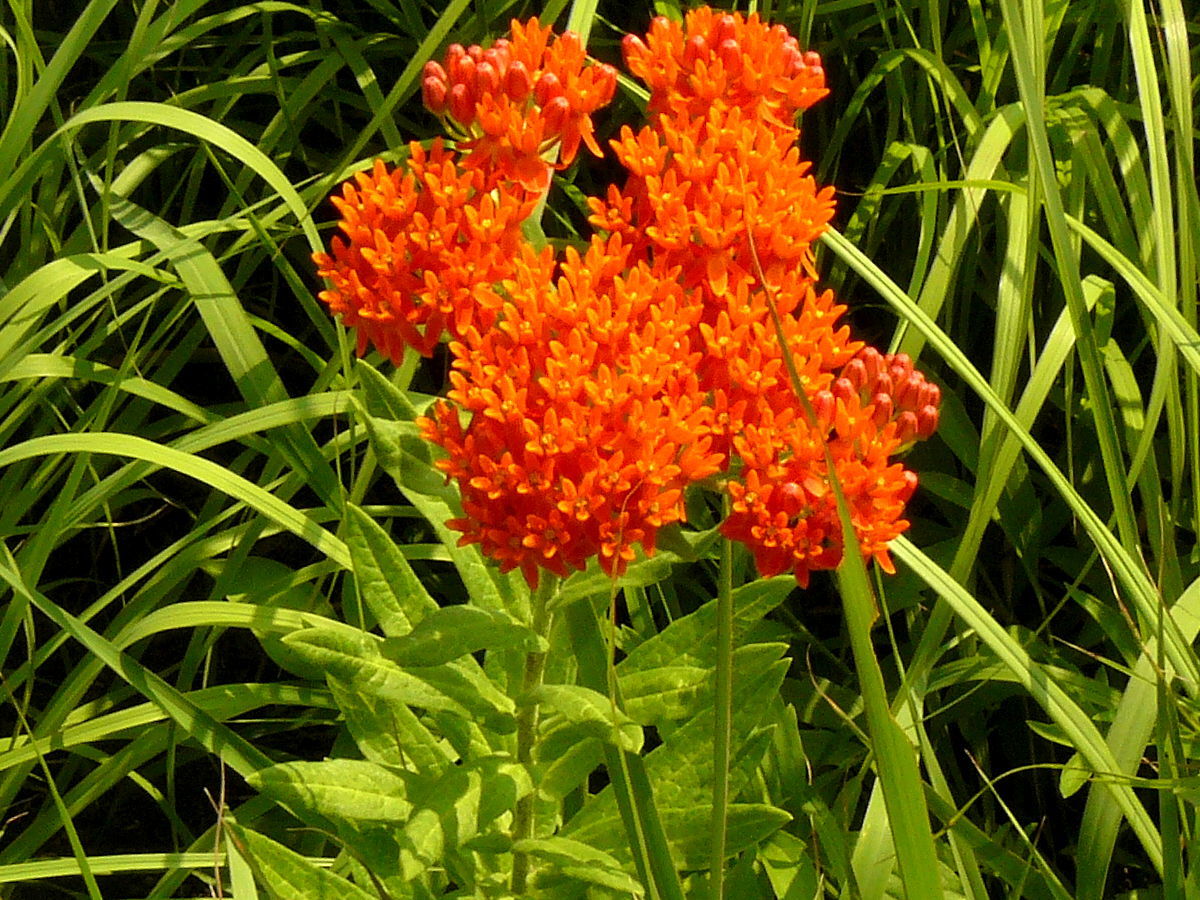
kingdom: Plantae
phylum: Tracheophyta
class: Magnoliopsida
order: Gentianales
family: Apocynaceae
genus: Asclepias
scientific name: Asclepias tuberosa
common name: Butterfly milkweed
